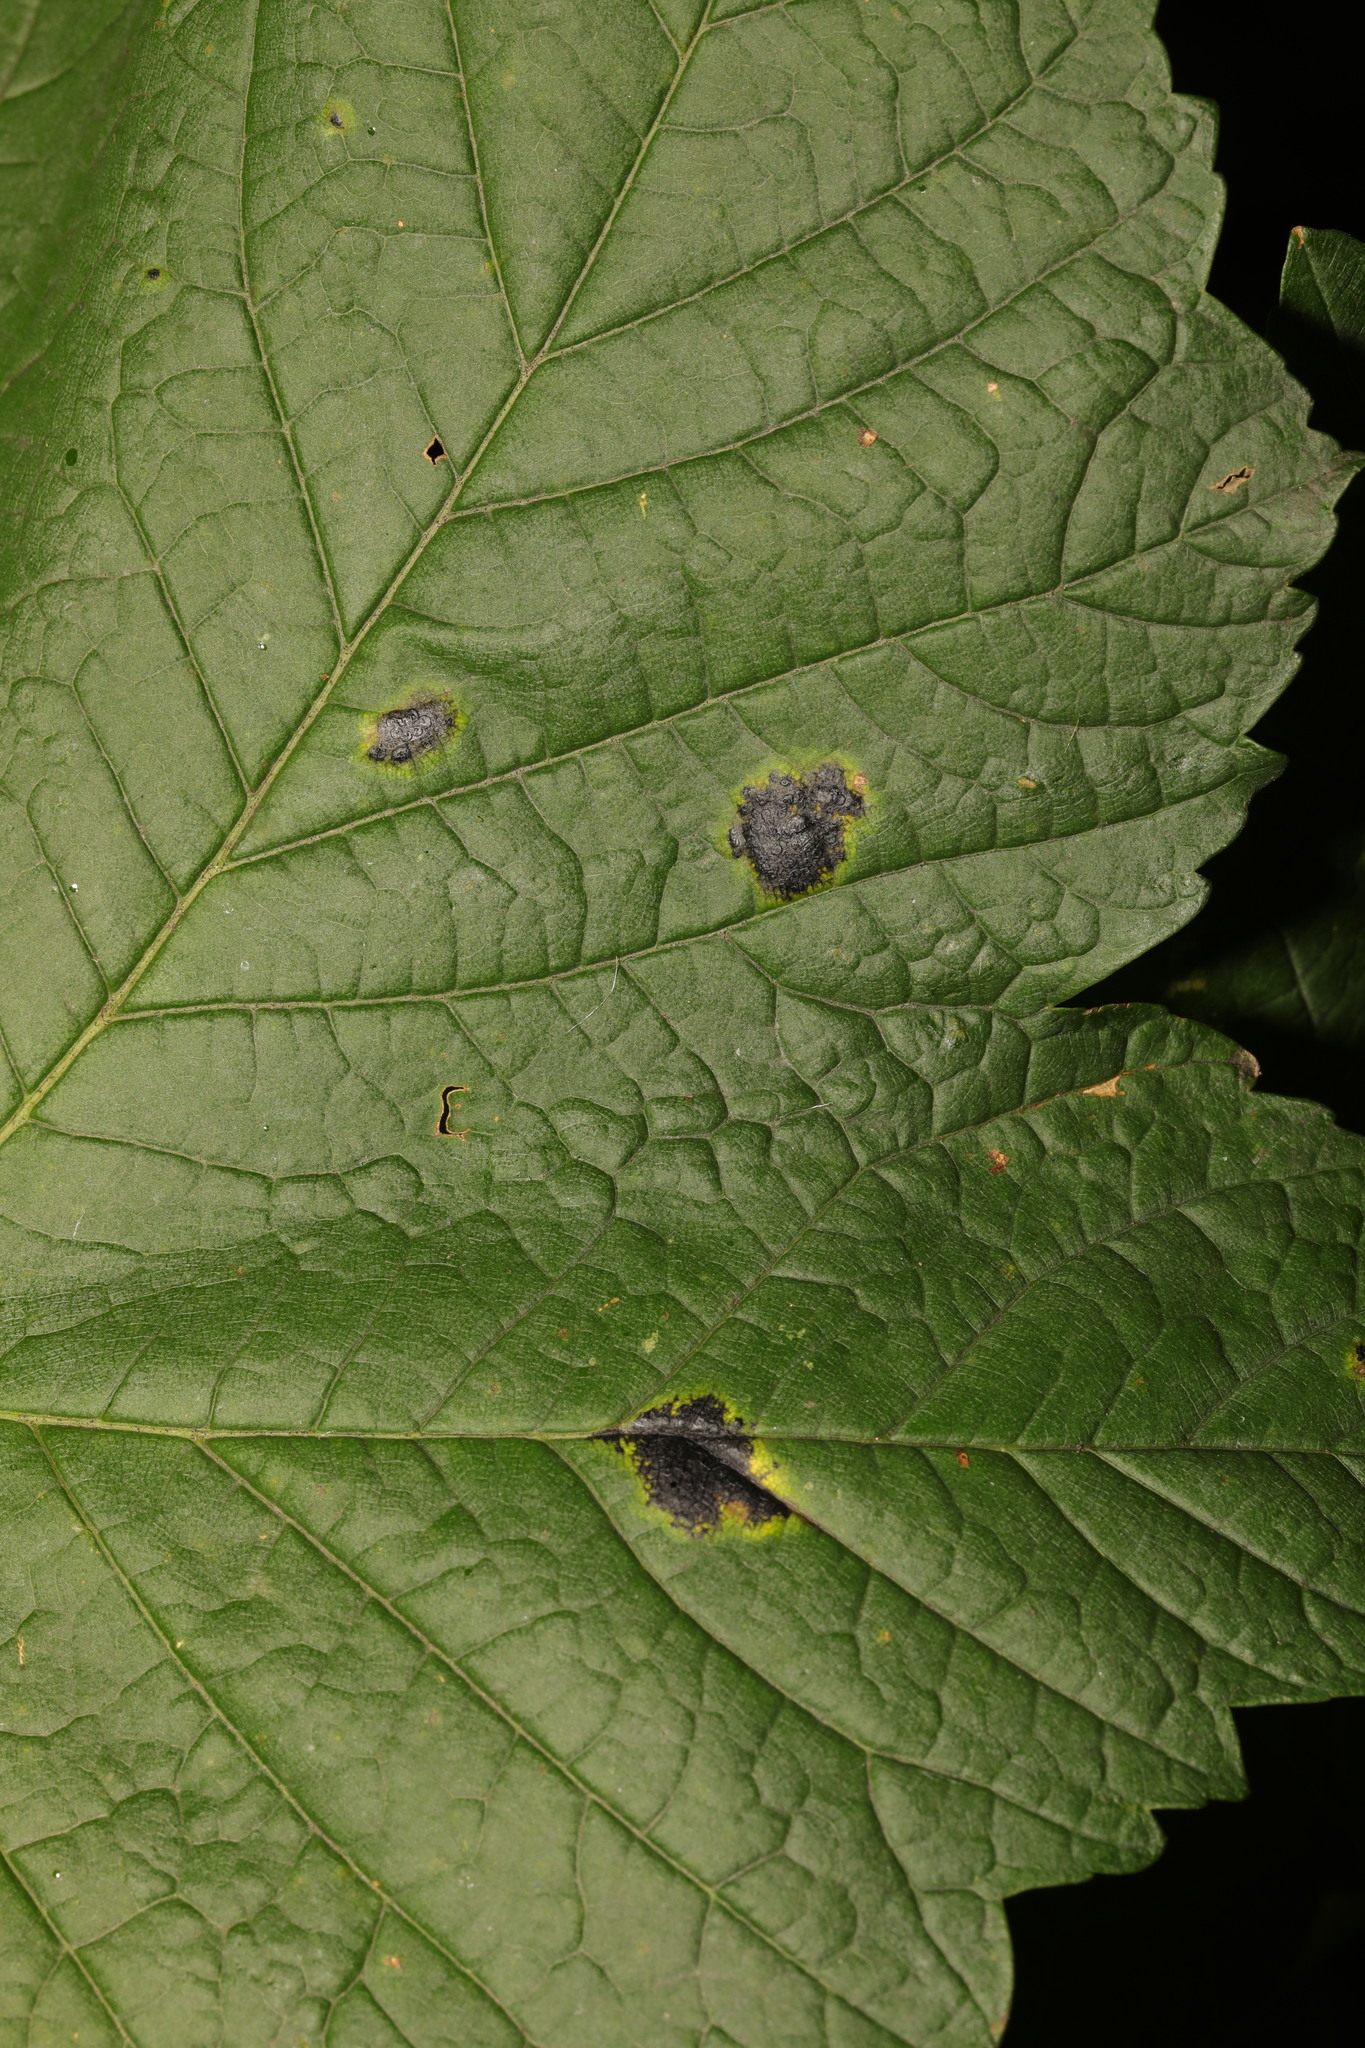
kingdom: Fungi
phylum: Ascomycota
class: Leotiomycetes
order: Rhytismatales
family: Rhytismataceae
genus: Rhytisma
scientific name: Rhytisma acerinum
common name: European tar spot
